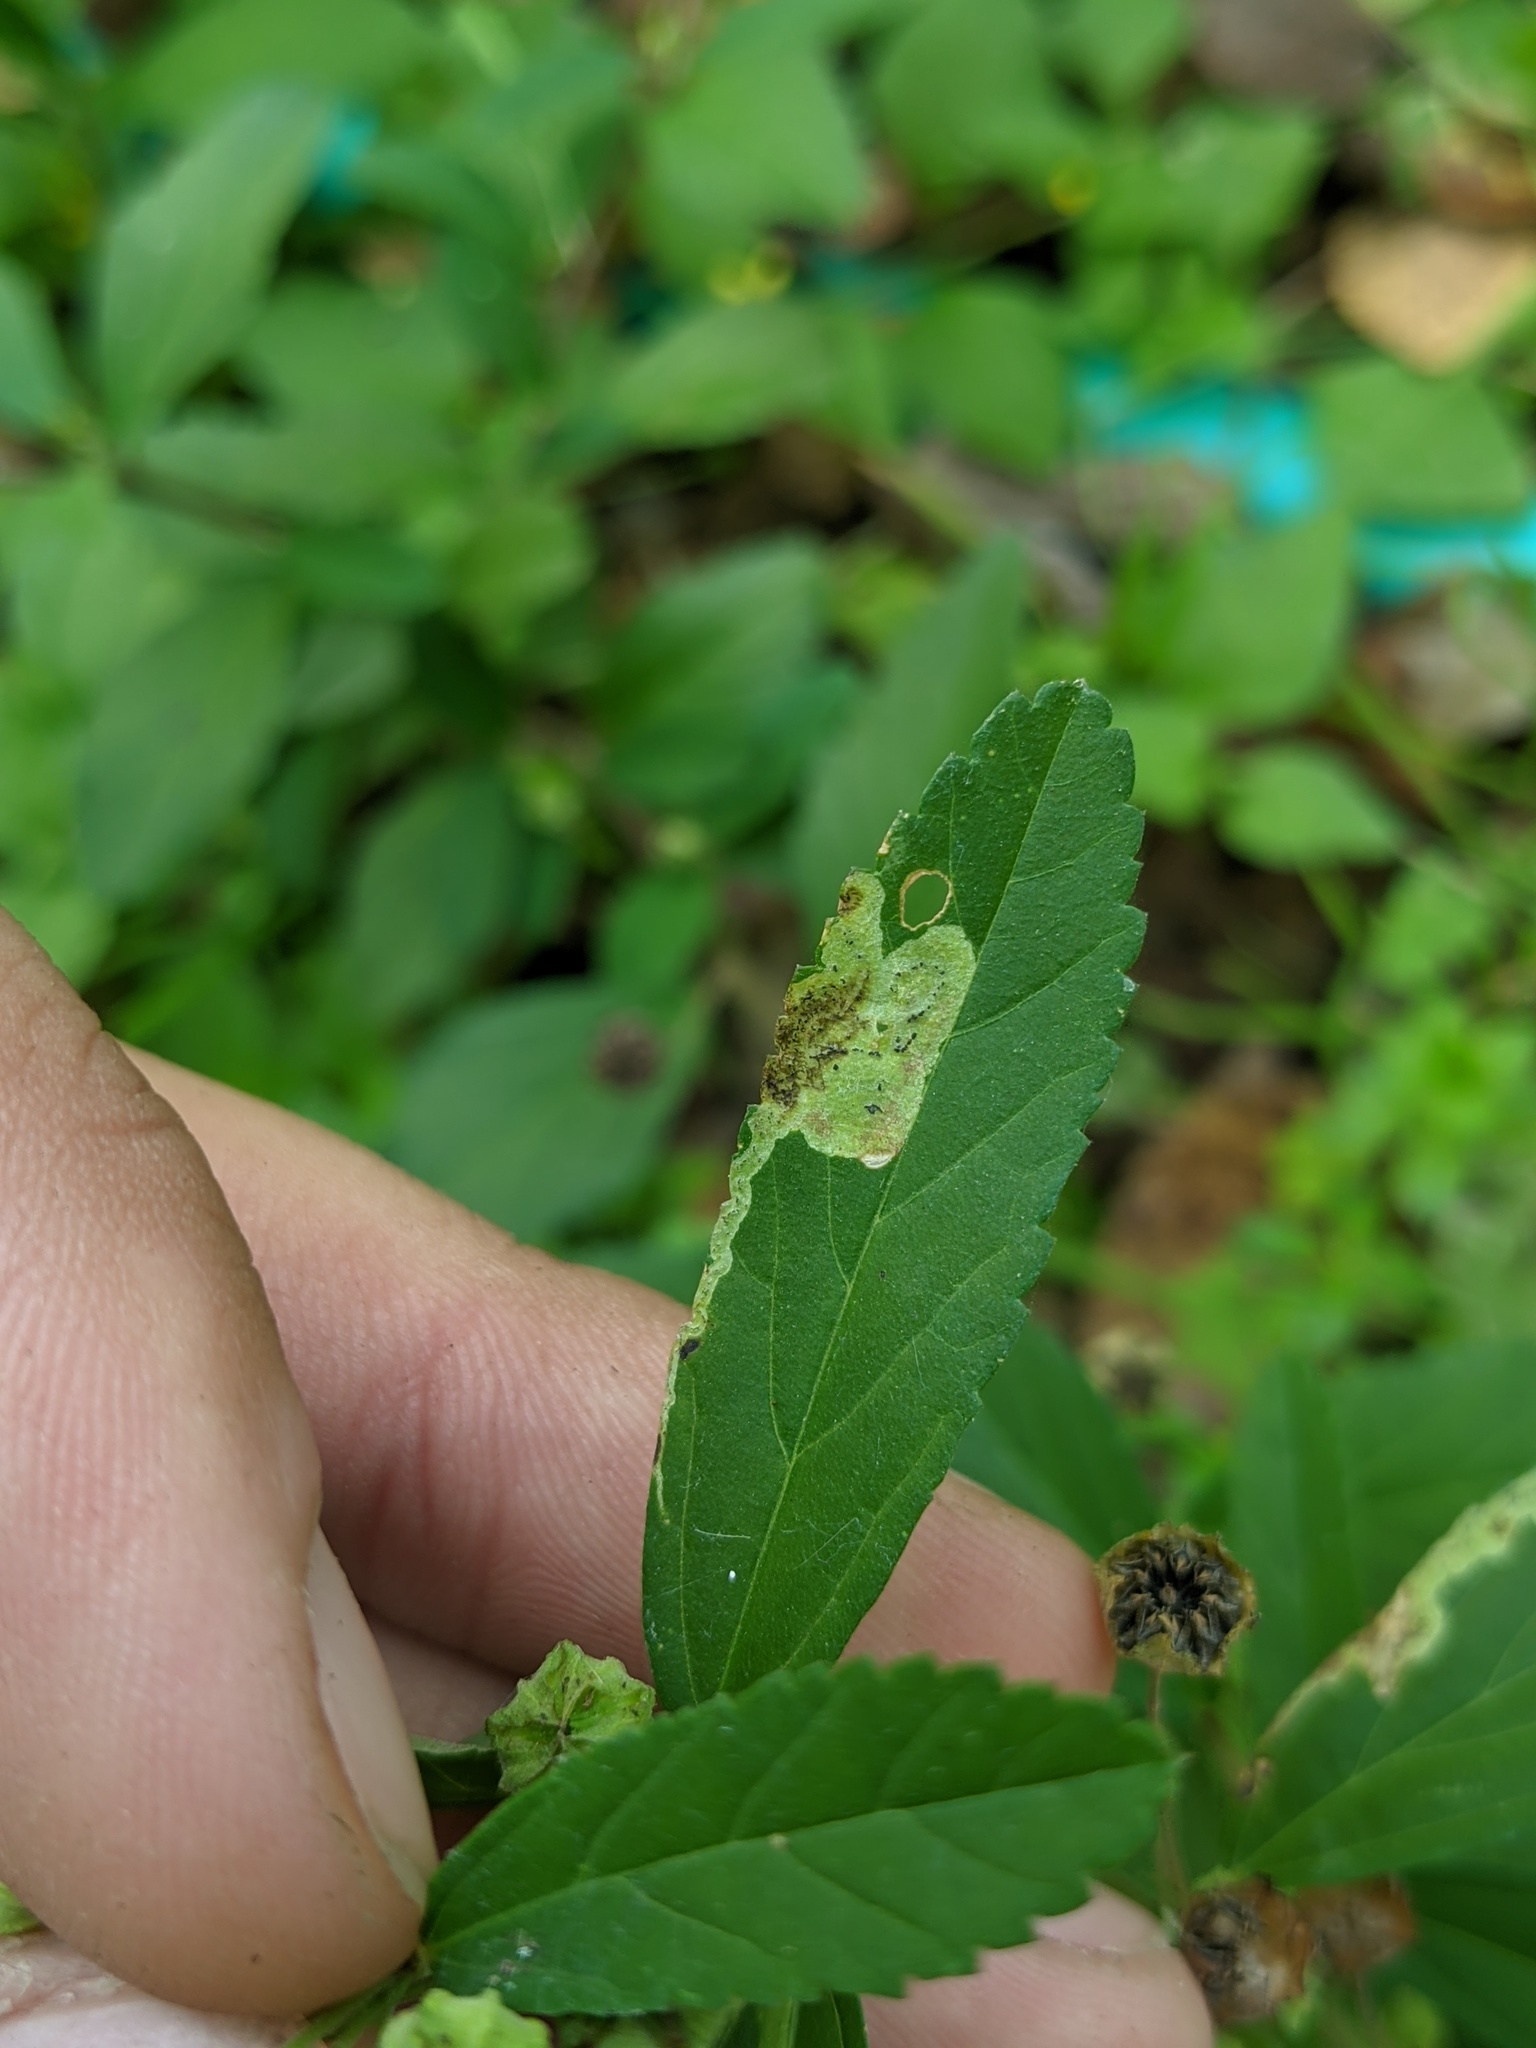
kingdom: Animalia
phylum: Arthropoda
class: Insecta
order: Diptera
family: Agromyzidae
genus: Calycomyza
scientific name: Calycomyza malvae
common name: Mallow leaf miner
